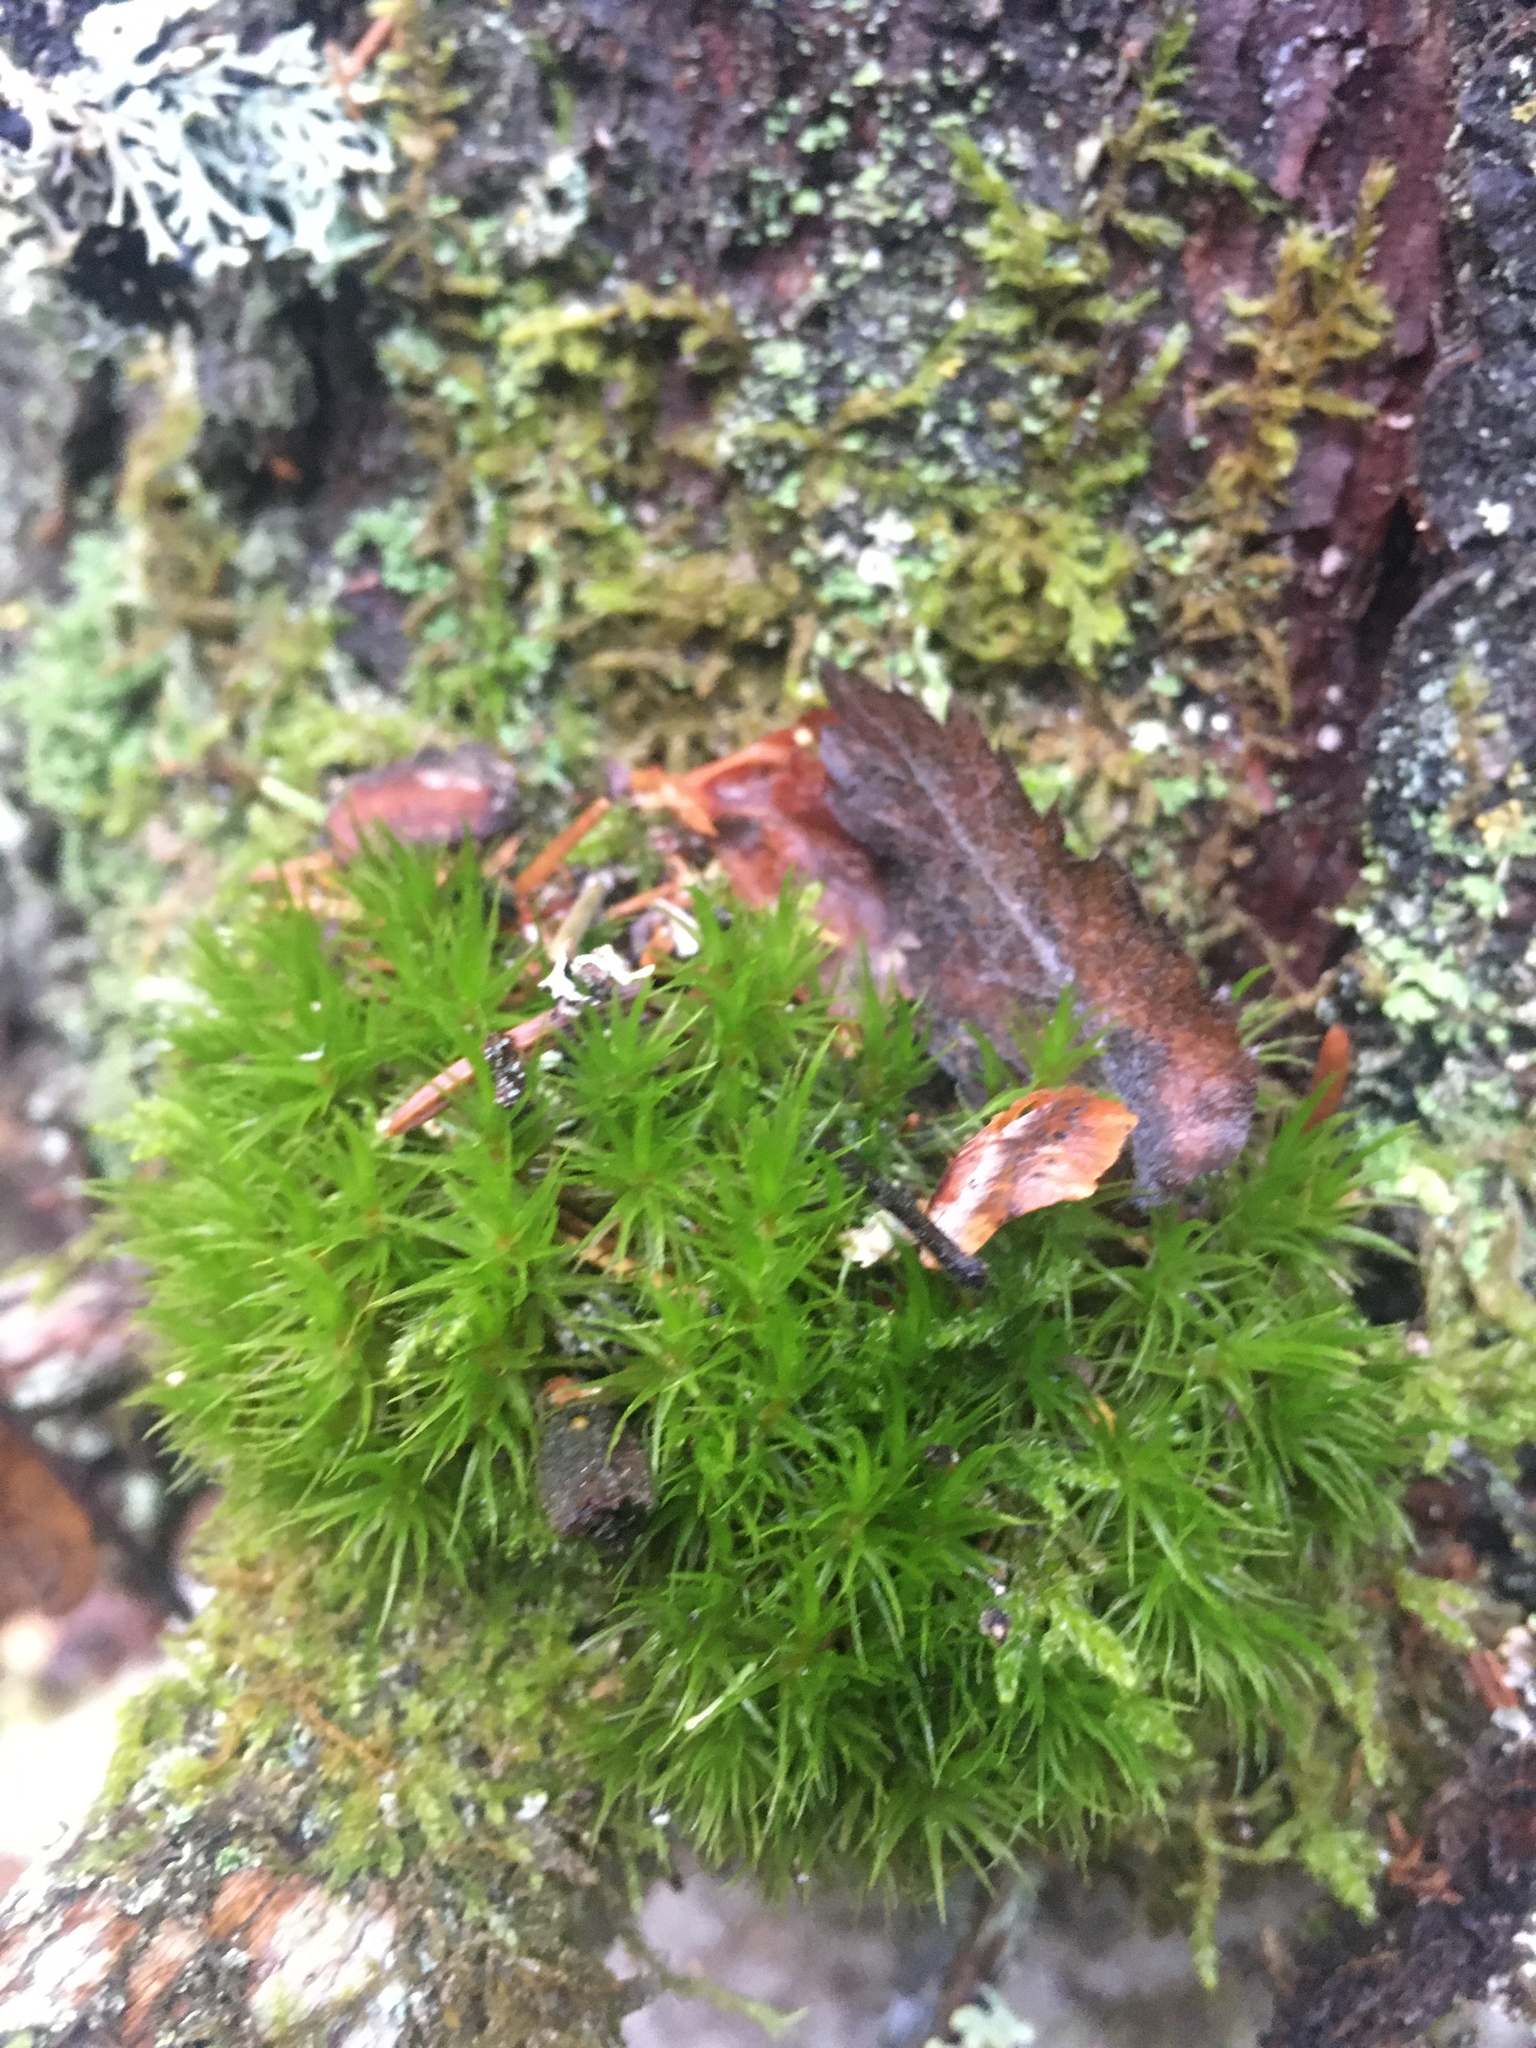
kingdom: Plantae
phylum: Bryophyta
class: Bryopsida
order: Dicranales
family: Dicranaceae
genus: Dicranum
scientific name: Dicranum scoparium
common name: Broom fork-moss
